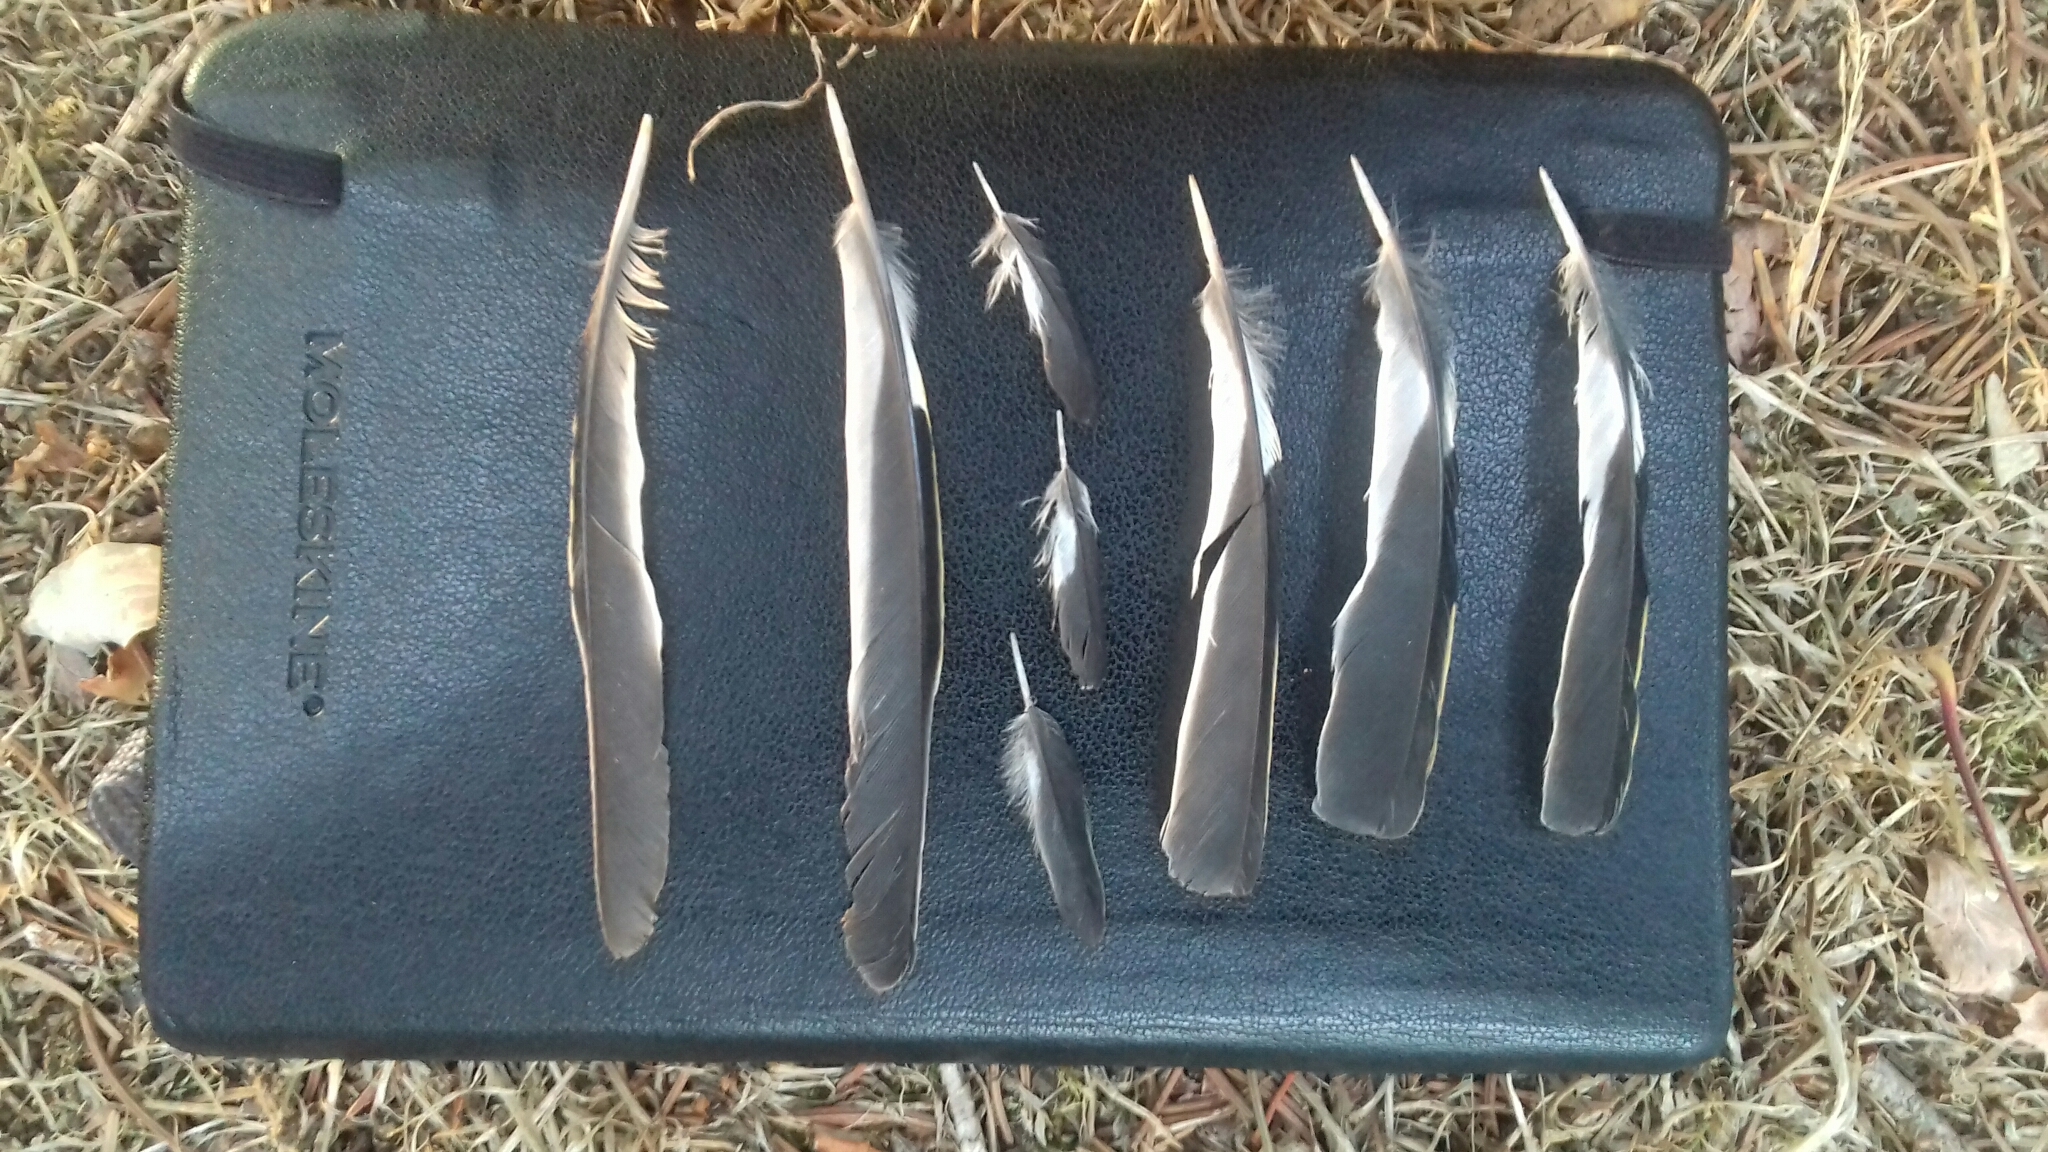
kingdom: Animalia
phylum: Chordata
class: Aves
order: Passeriformes
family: Fringillidae
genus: Fringilla
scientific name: Fringilla coelebs
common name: Common chaffinch
